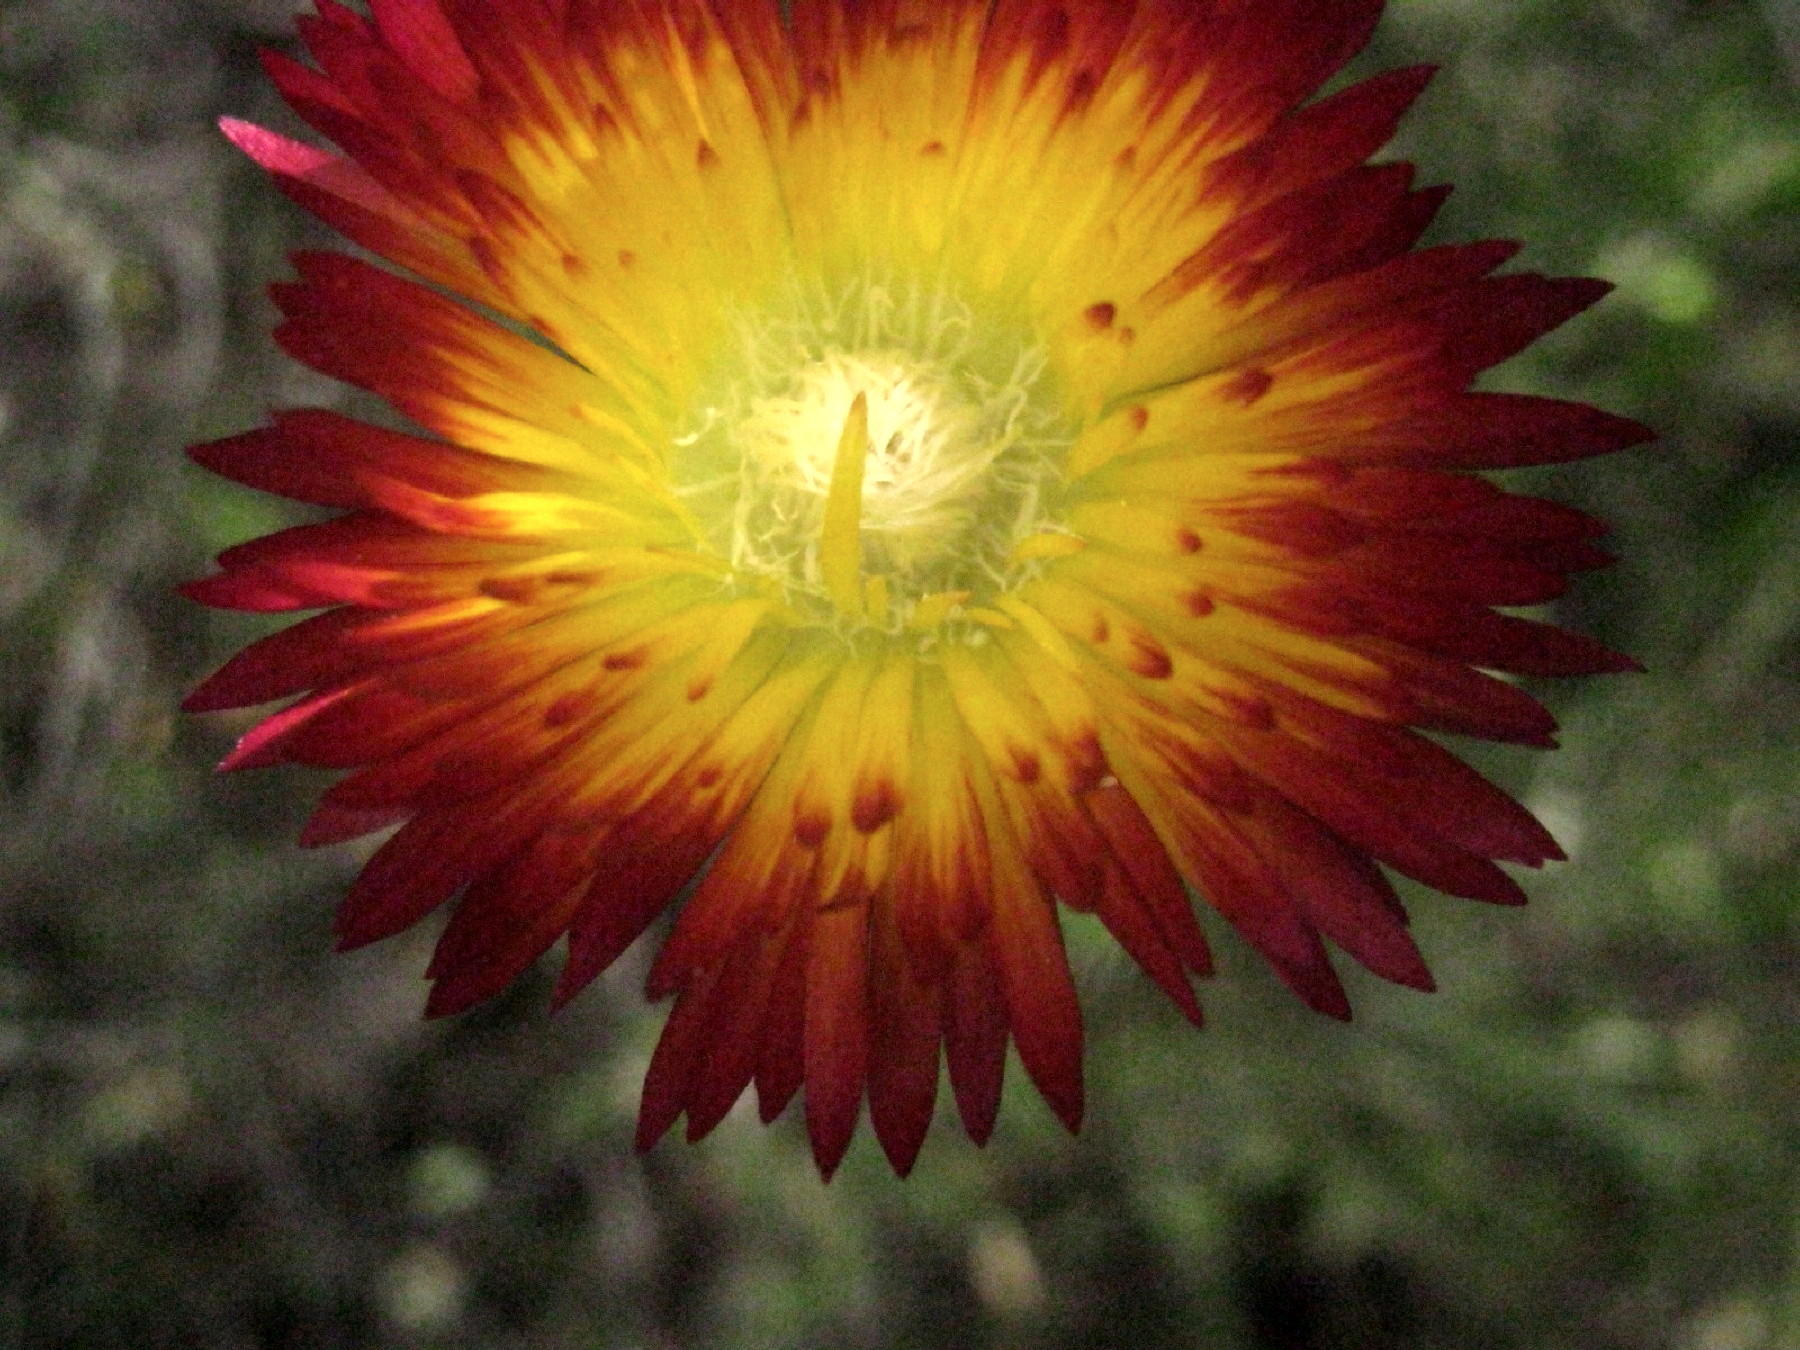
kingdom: Plantae
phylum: Tracheophyta
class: Magnoliopsida
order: Caryophyllales
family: Aizoaceae
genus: Drosanthemum
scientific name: Drosanthemum bicolor
